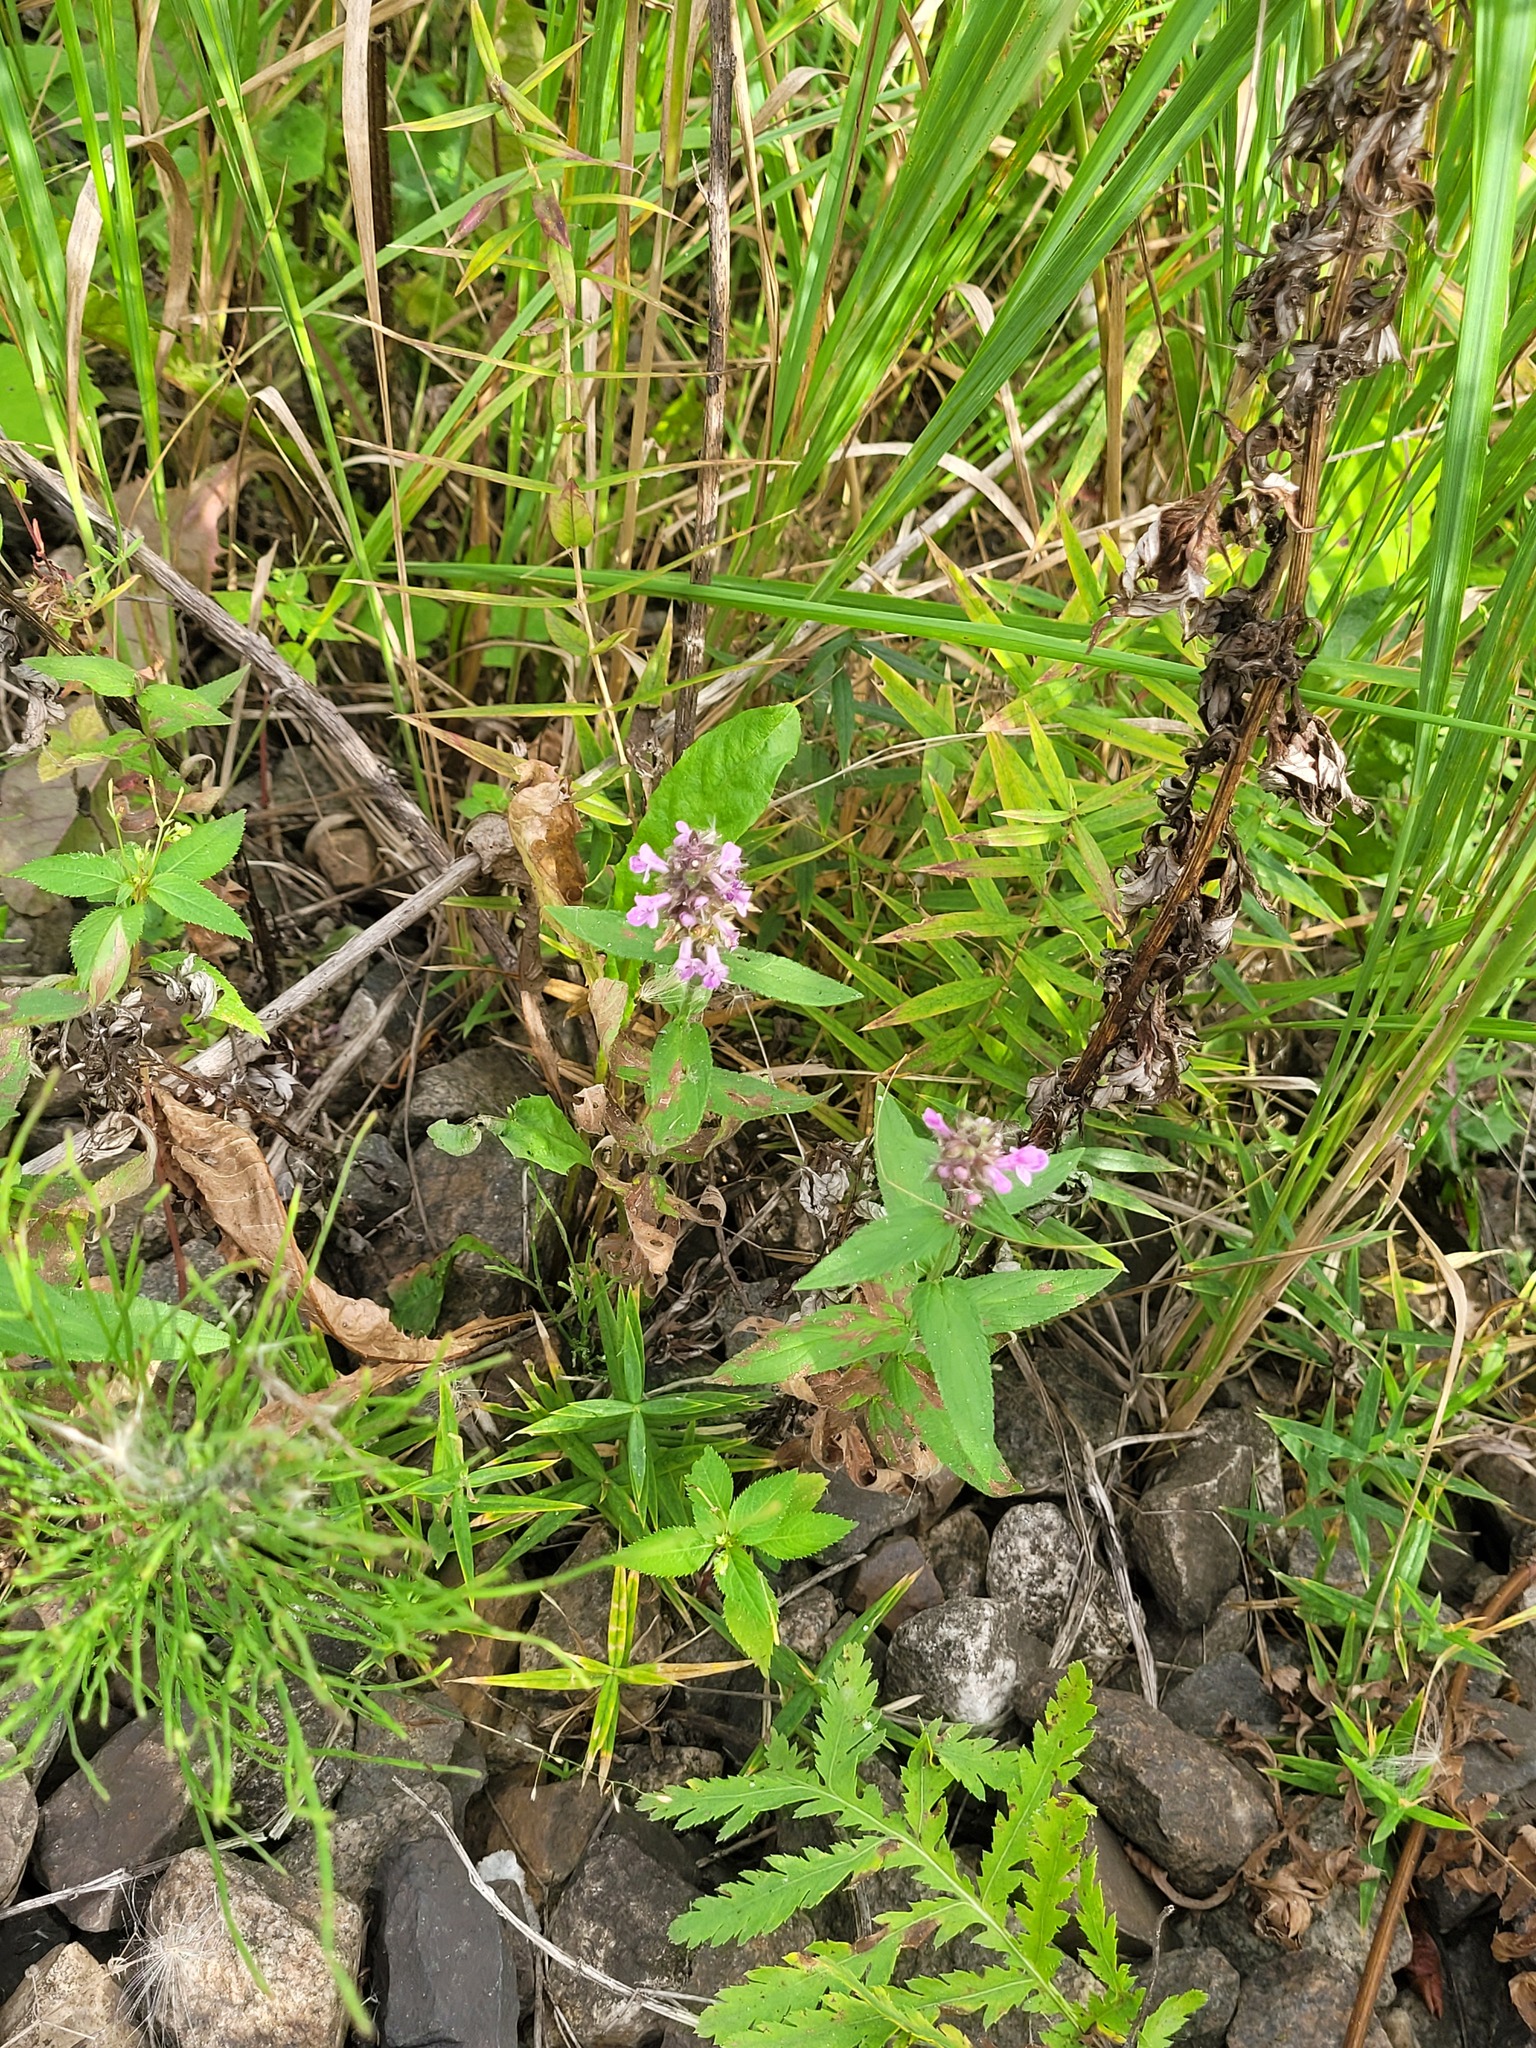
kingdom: Plantae
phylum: Tracheophyta
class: Magnoliopsida
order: Lamiales
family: Lamiaceae
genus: Stachys
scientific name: Stachys palustris
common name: Marsh woundwort
